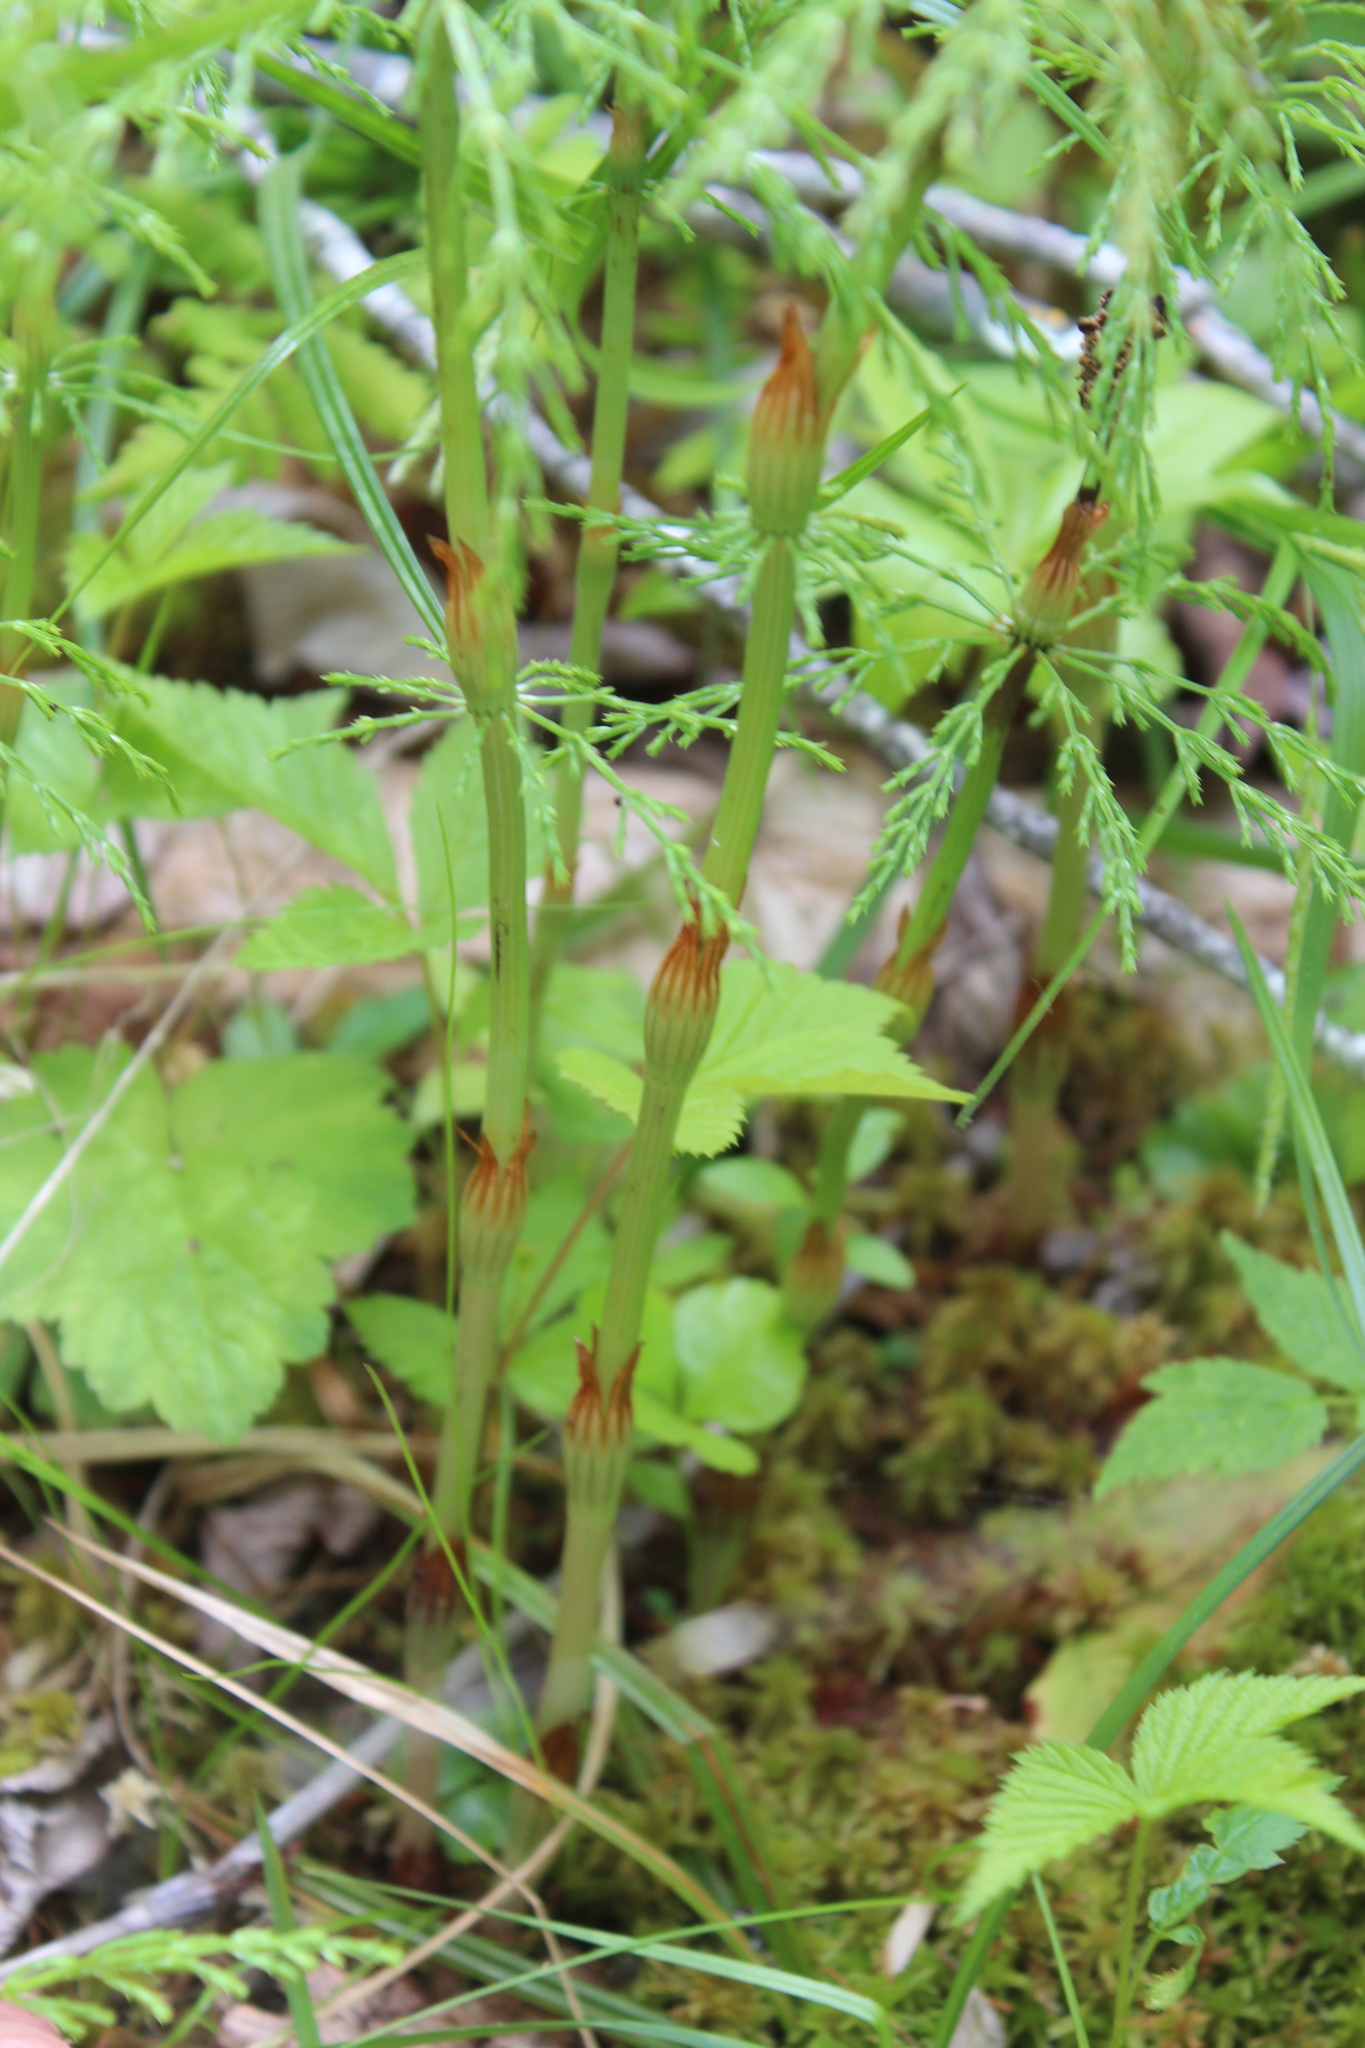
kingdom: Plantae
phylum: Tracheophyta
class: Polypodiopsida
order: Equisetales
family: Equisetaceae
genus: Equisetum
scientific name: Equisetum sylvaticum
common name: Wood horsetail
